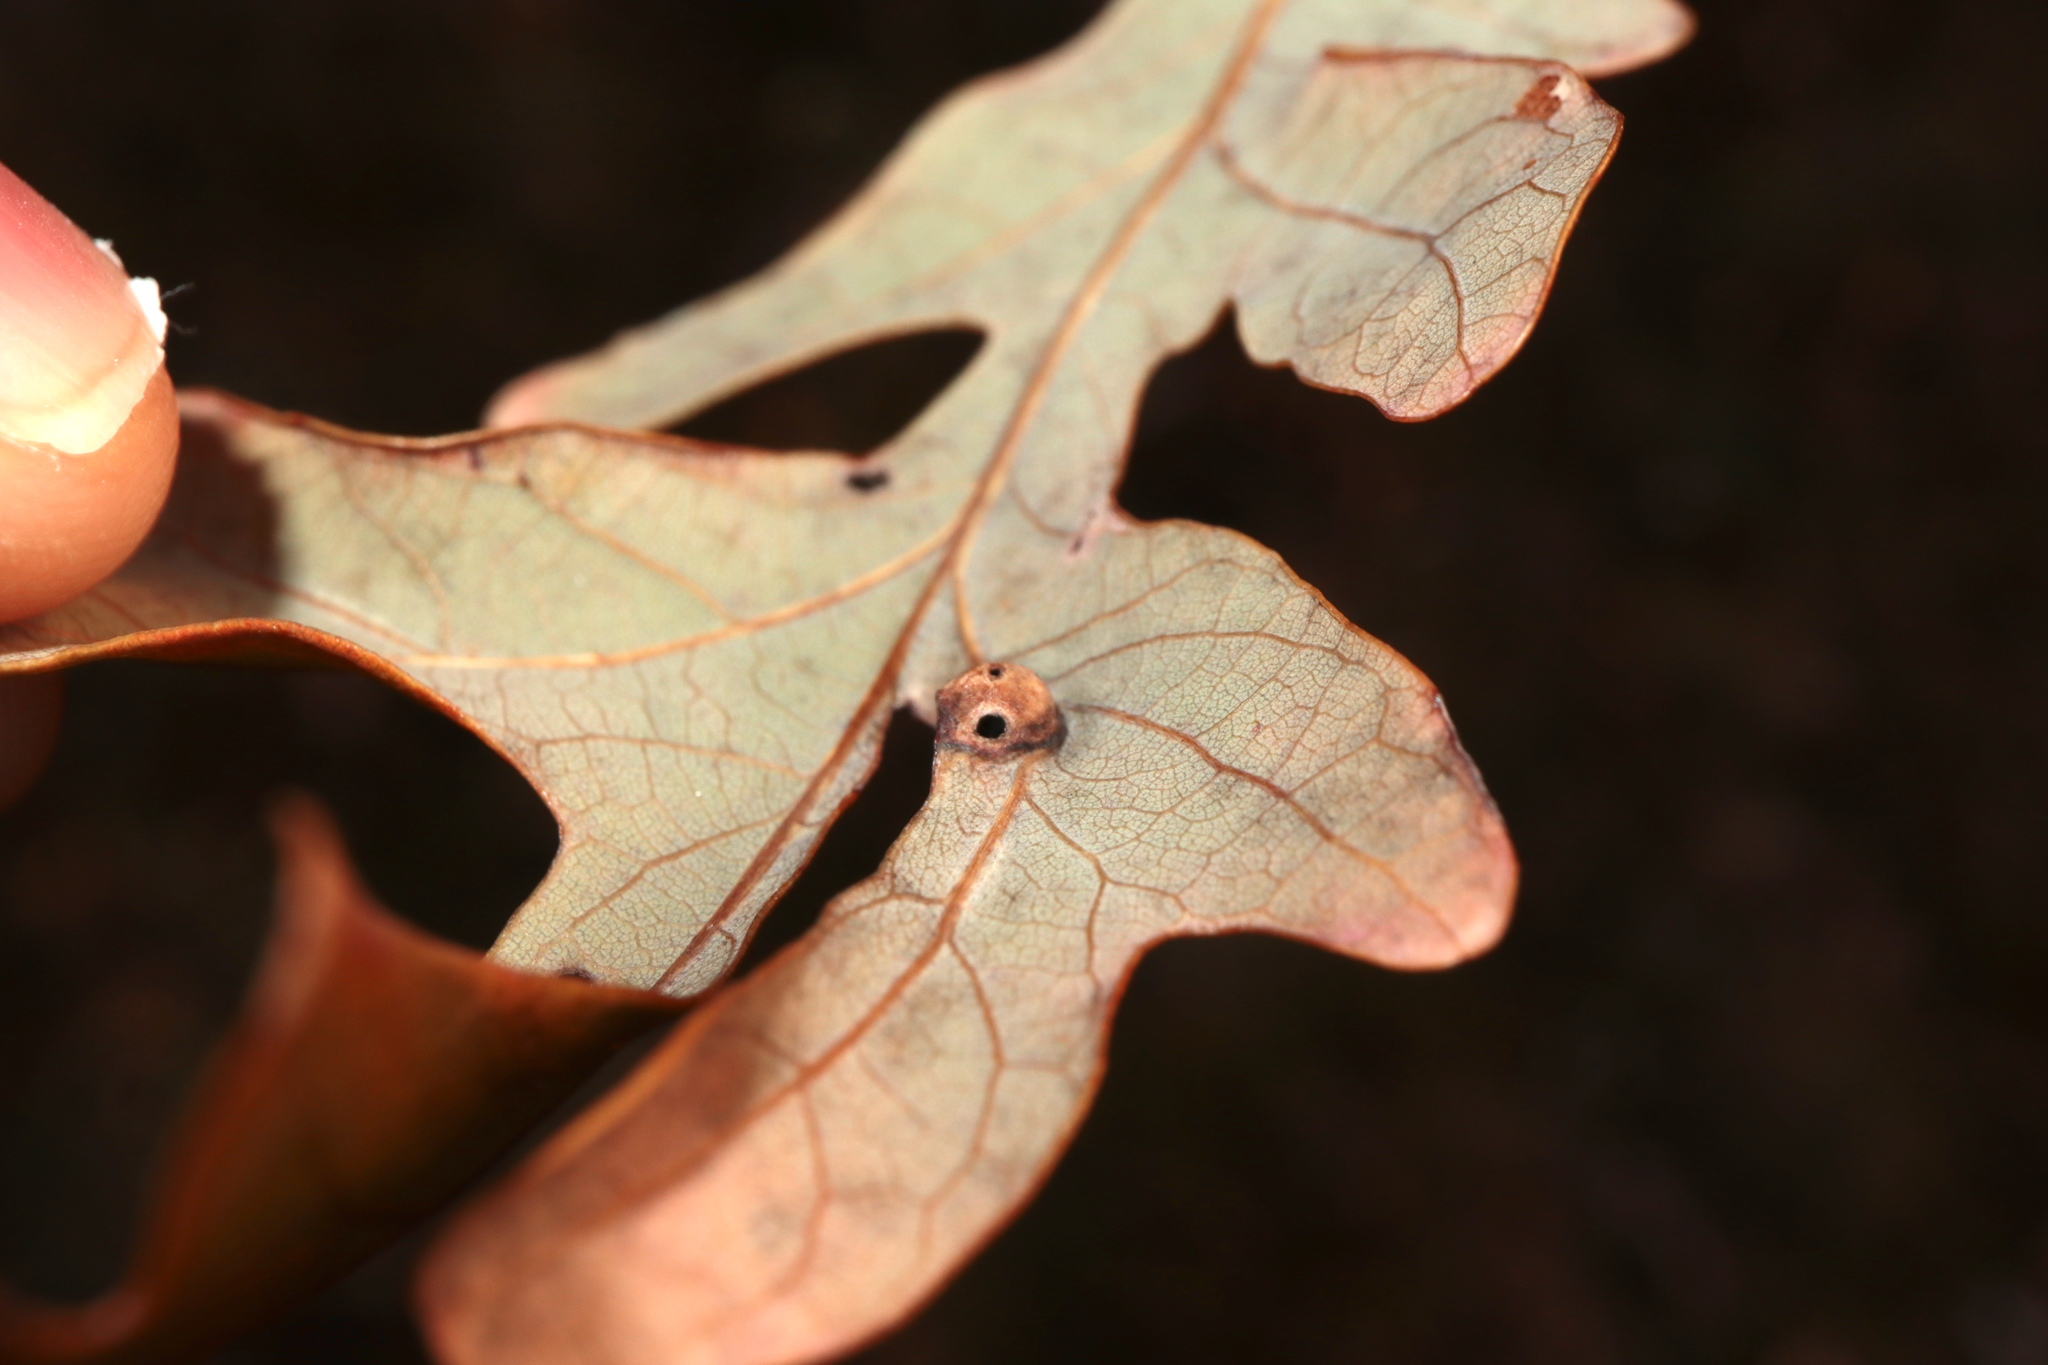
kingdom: Animalia
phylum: Arthropoda
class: Insecta
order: Hymenoptera
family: Cynipidae
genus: Andricus
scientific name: Andricus
